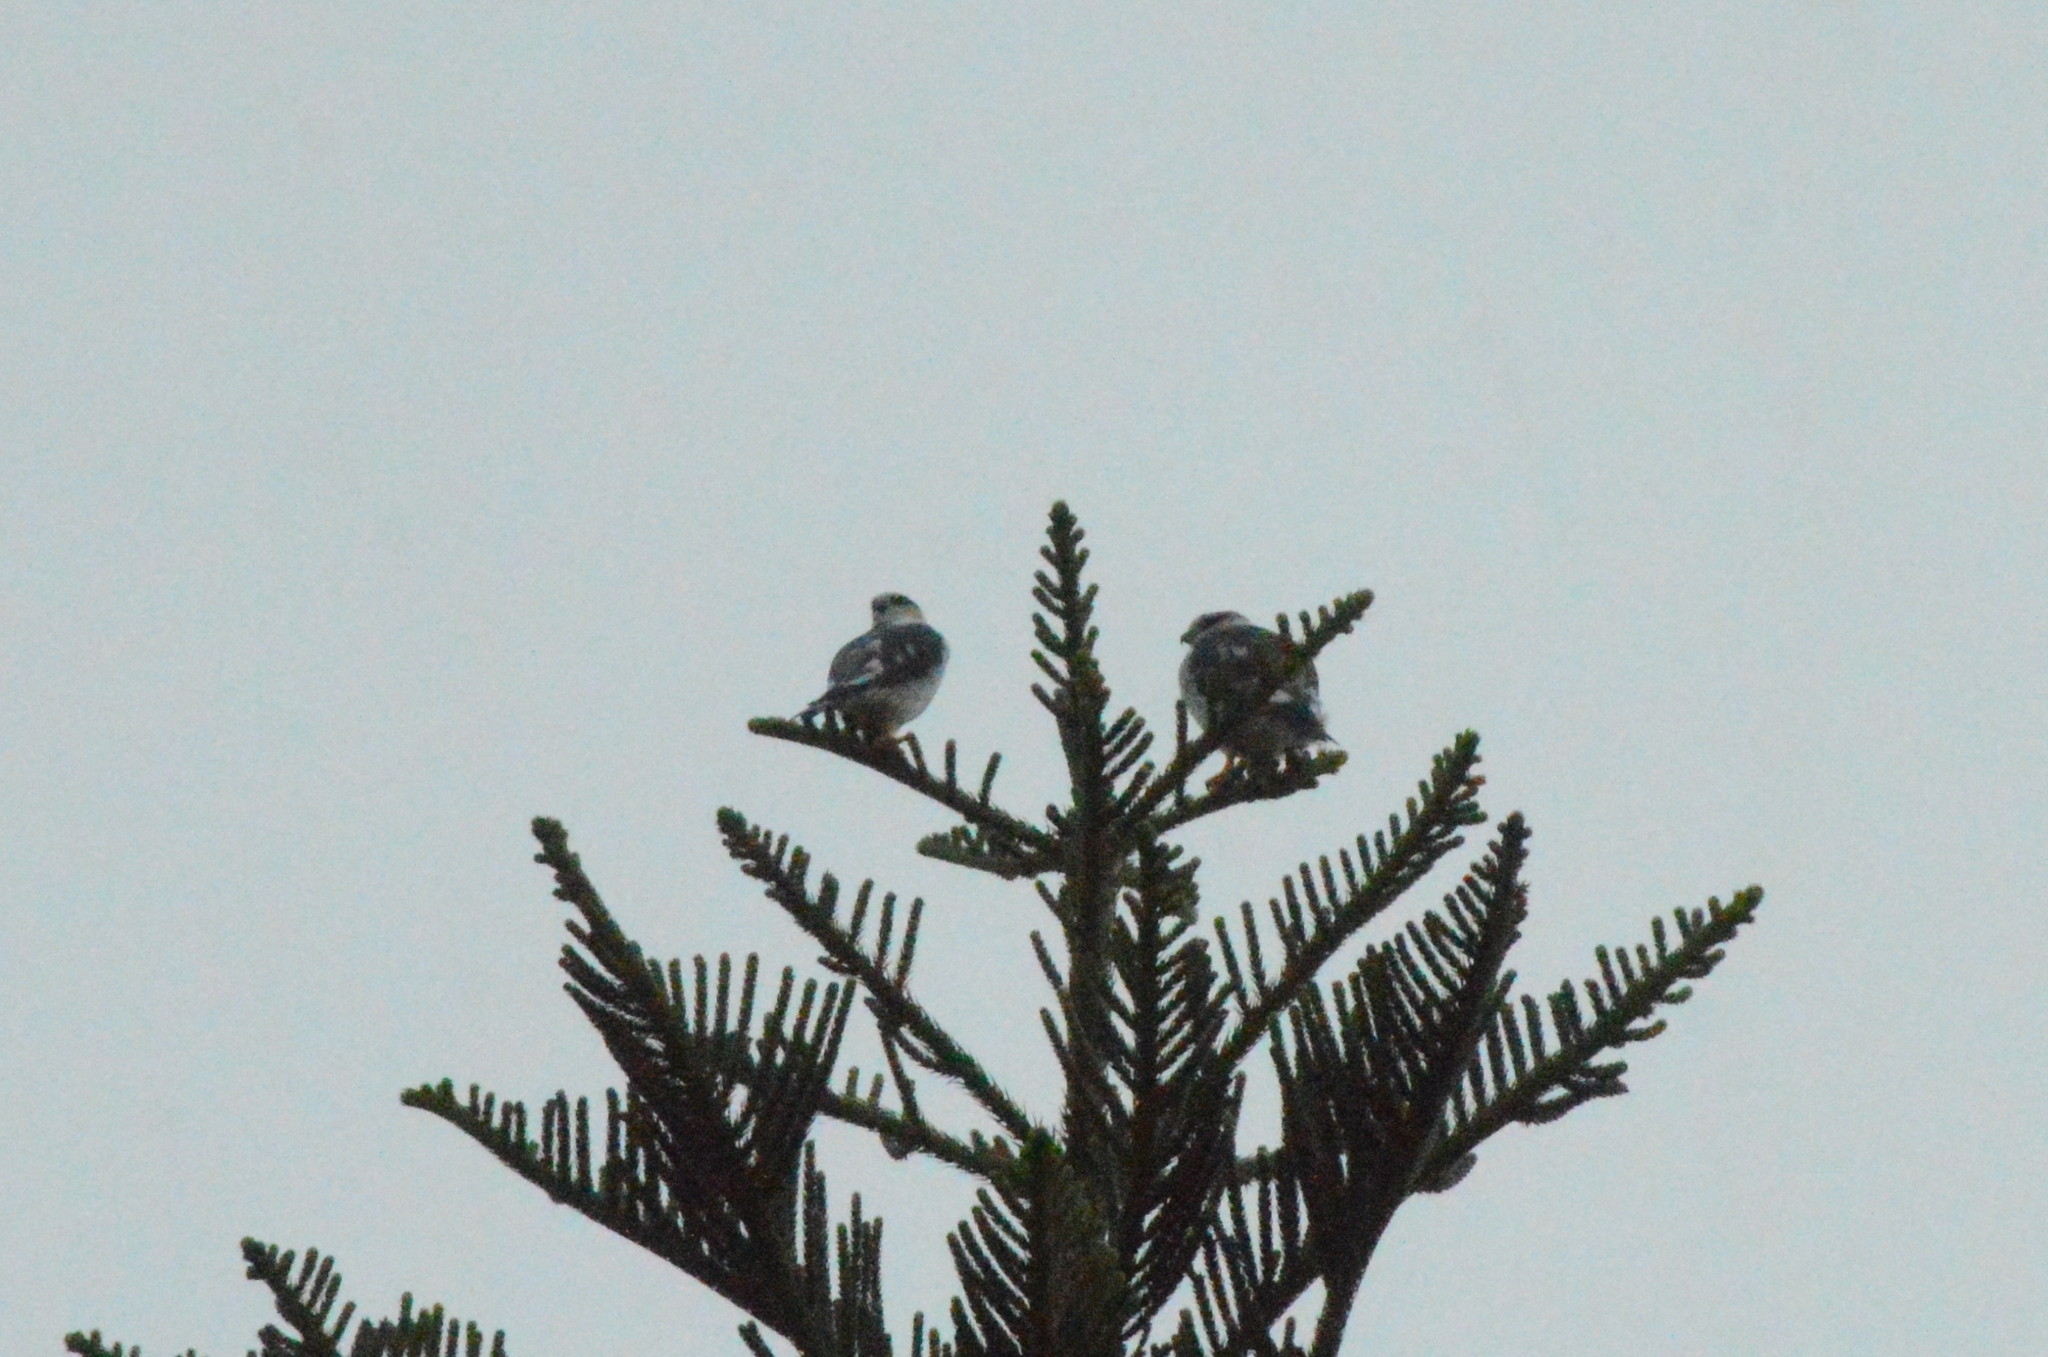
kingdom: Animalia
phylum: Chordata
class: Aves
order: Accipitriformes
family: Accipitridae
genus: Gampsonyx
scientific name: Gampsonyx swainsonii
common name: Pearl kite
